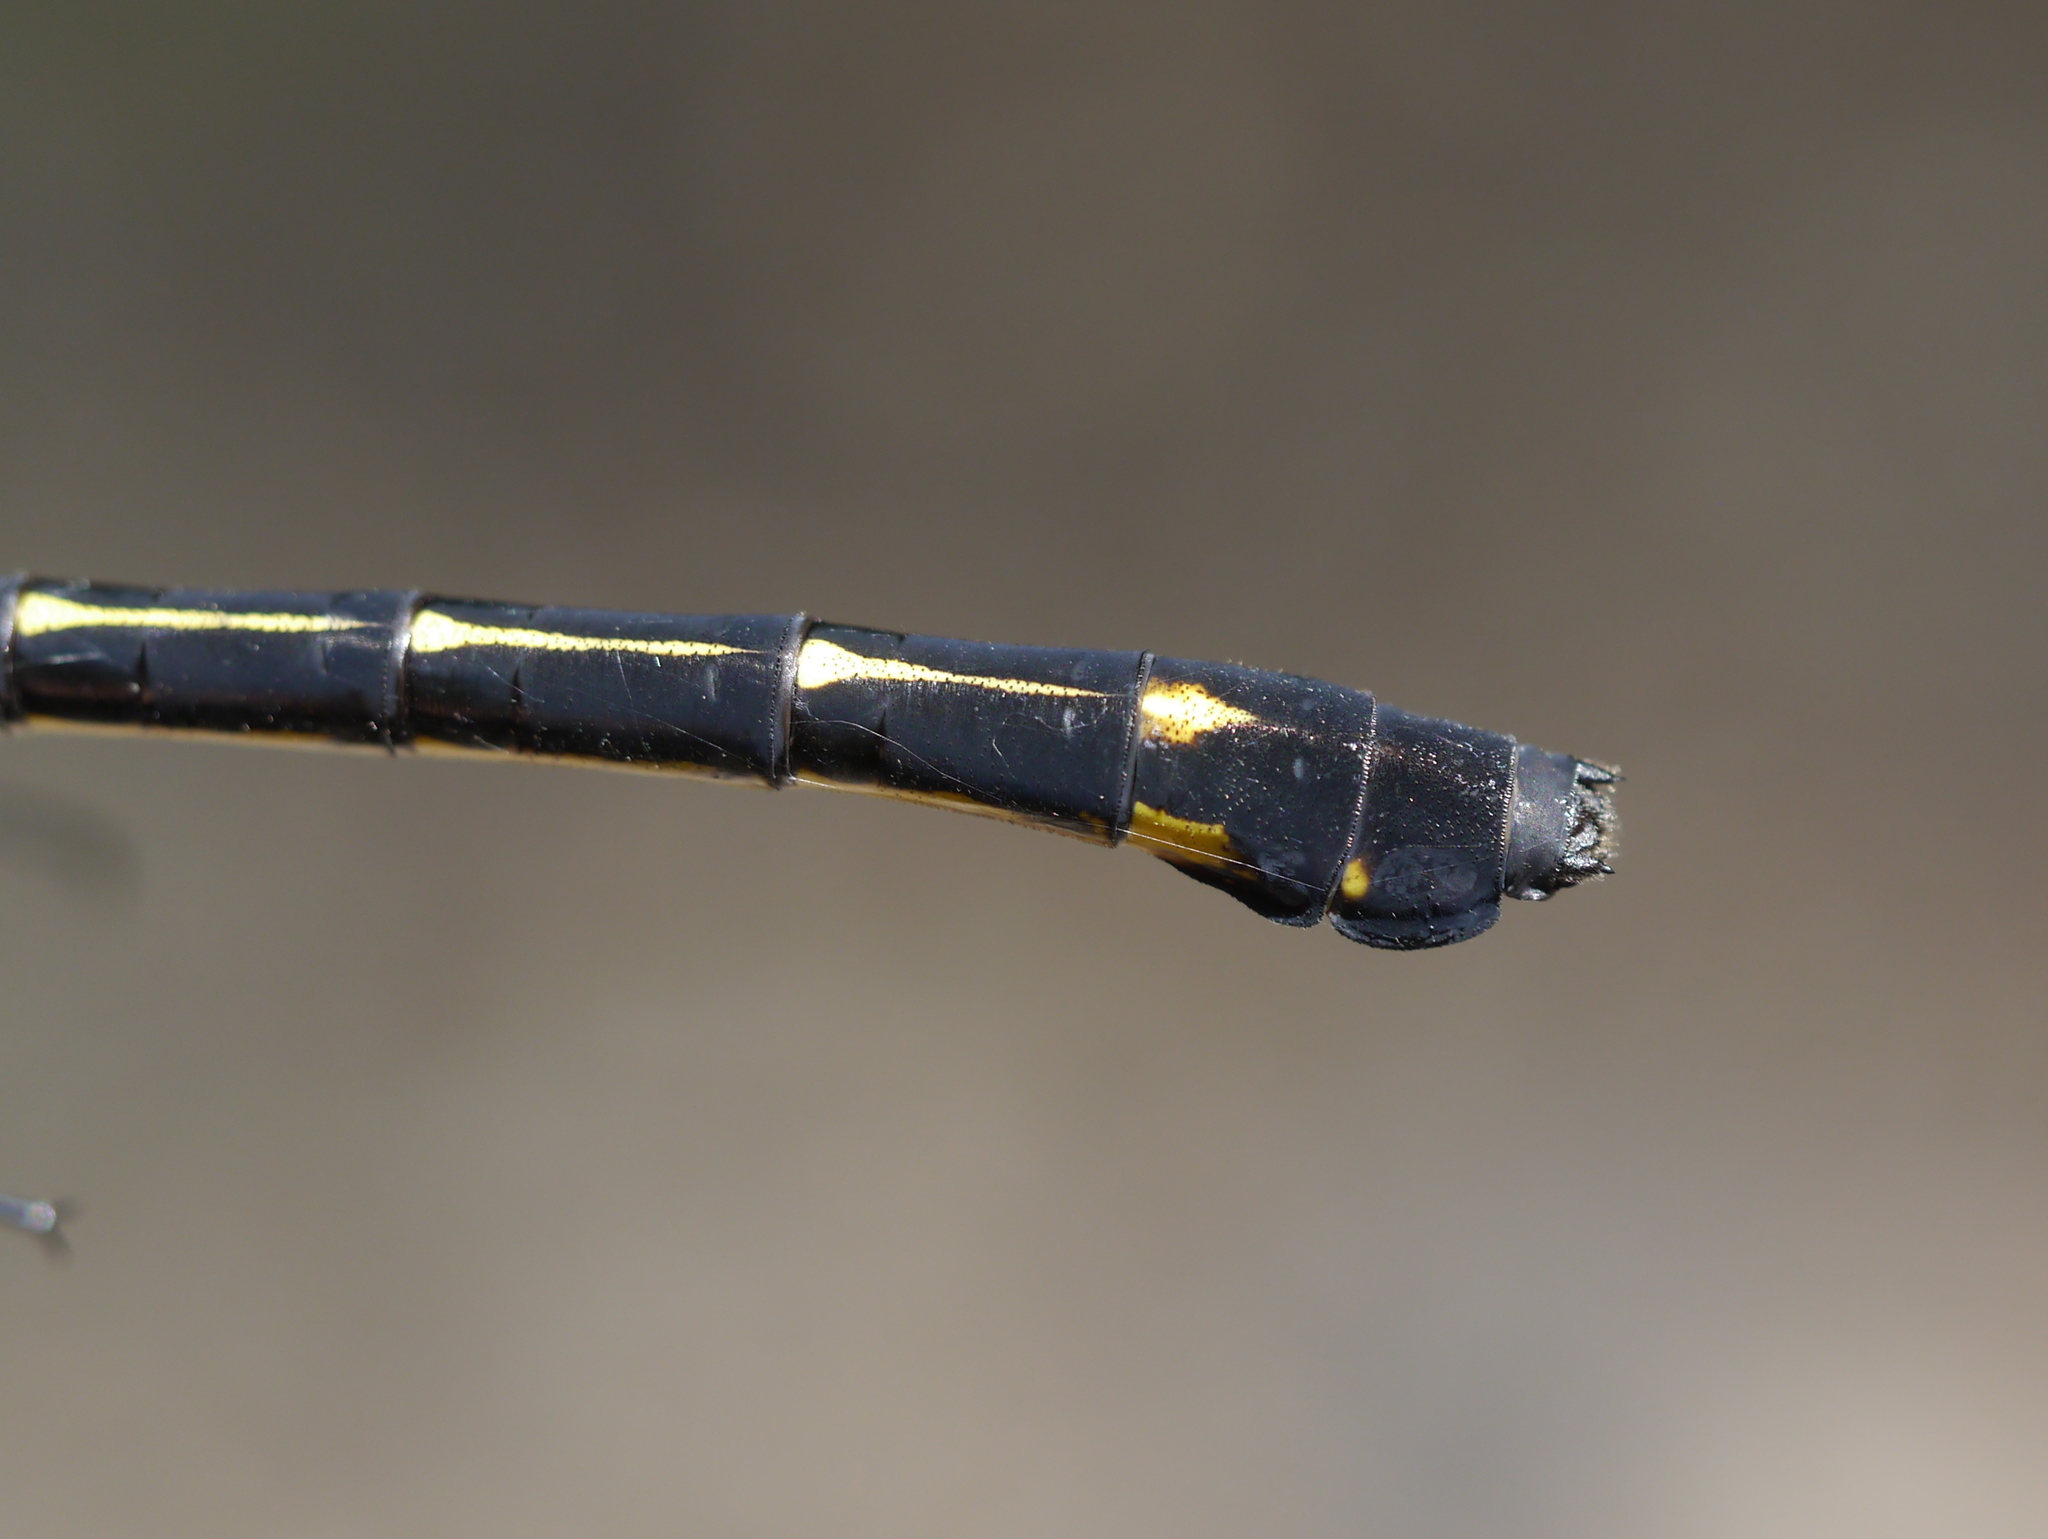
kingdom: Animalia
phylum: Arthropoda
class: Insecta
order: Odonata
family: Gomphidae
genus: Hagenius
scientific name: Hagenius brevistylus
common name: Dragonhunter
